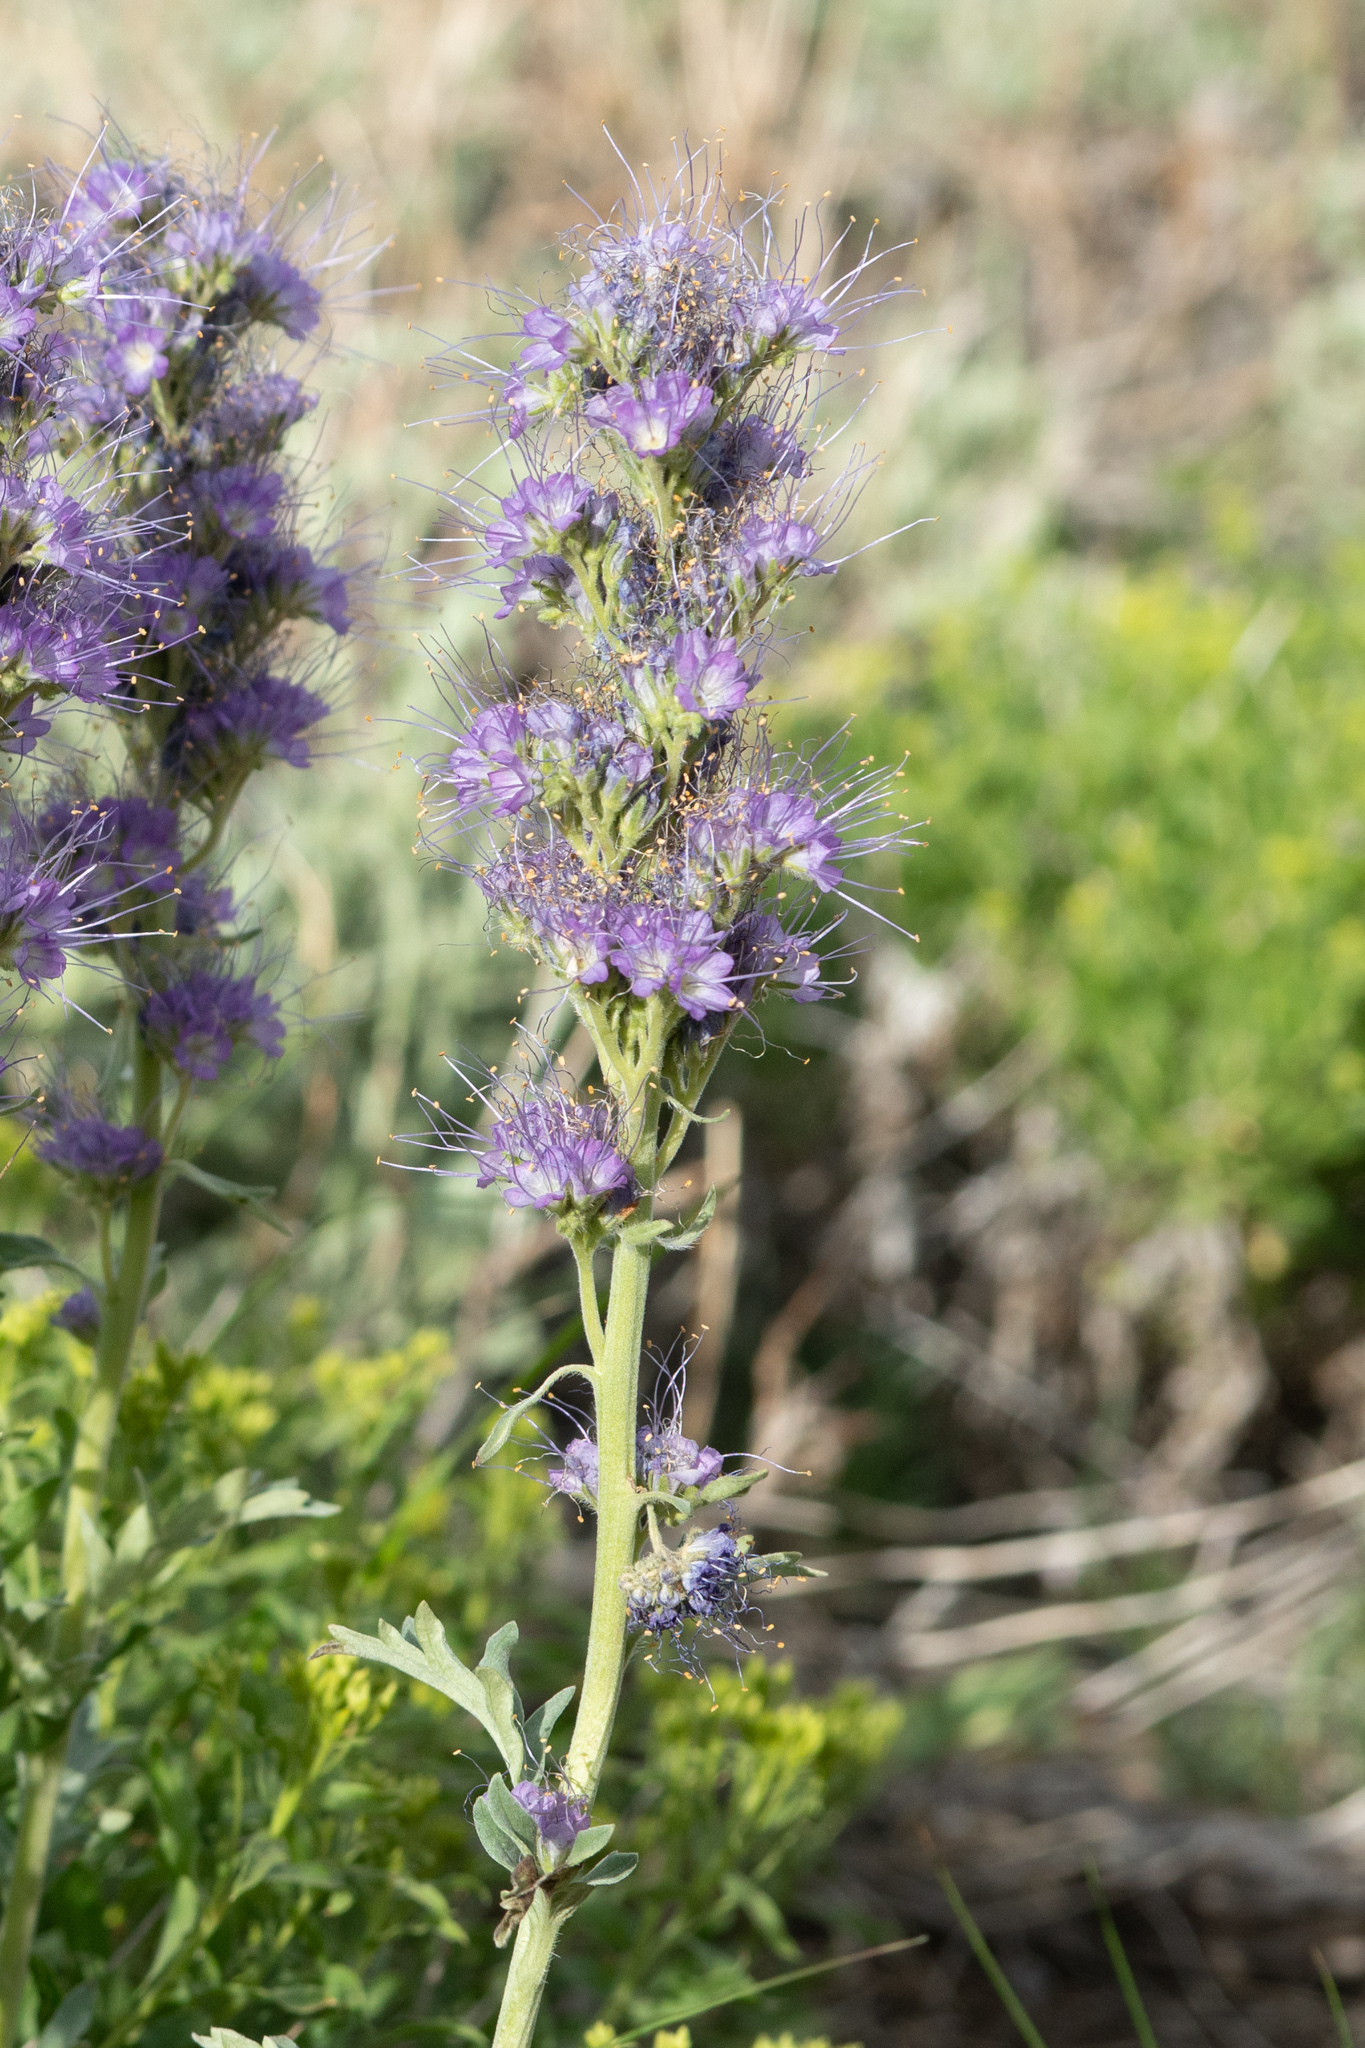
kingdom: Plantae
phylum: Tracheophyta
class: Magnoliopsida
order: Boraginales
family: Hydrophyllaceae
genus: Phacelia
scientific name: Phacelia sericea
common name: Silky phacelia
